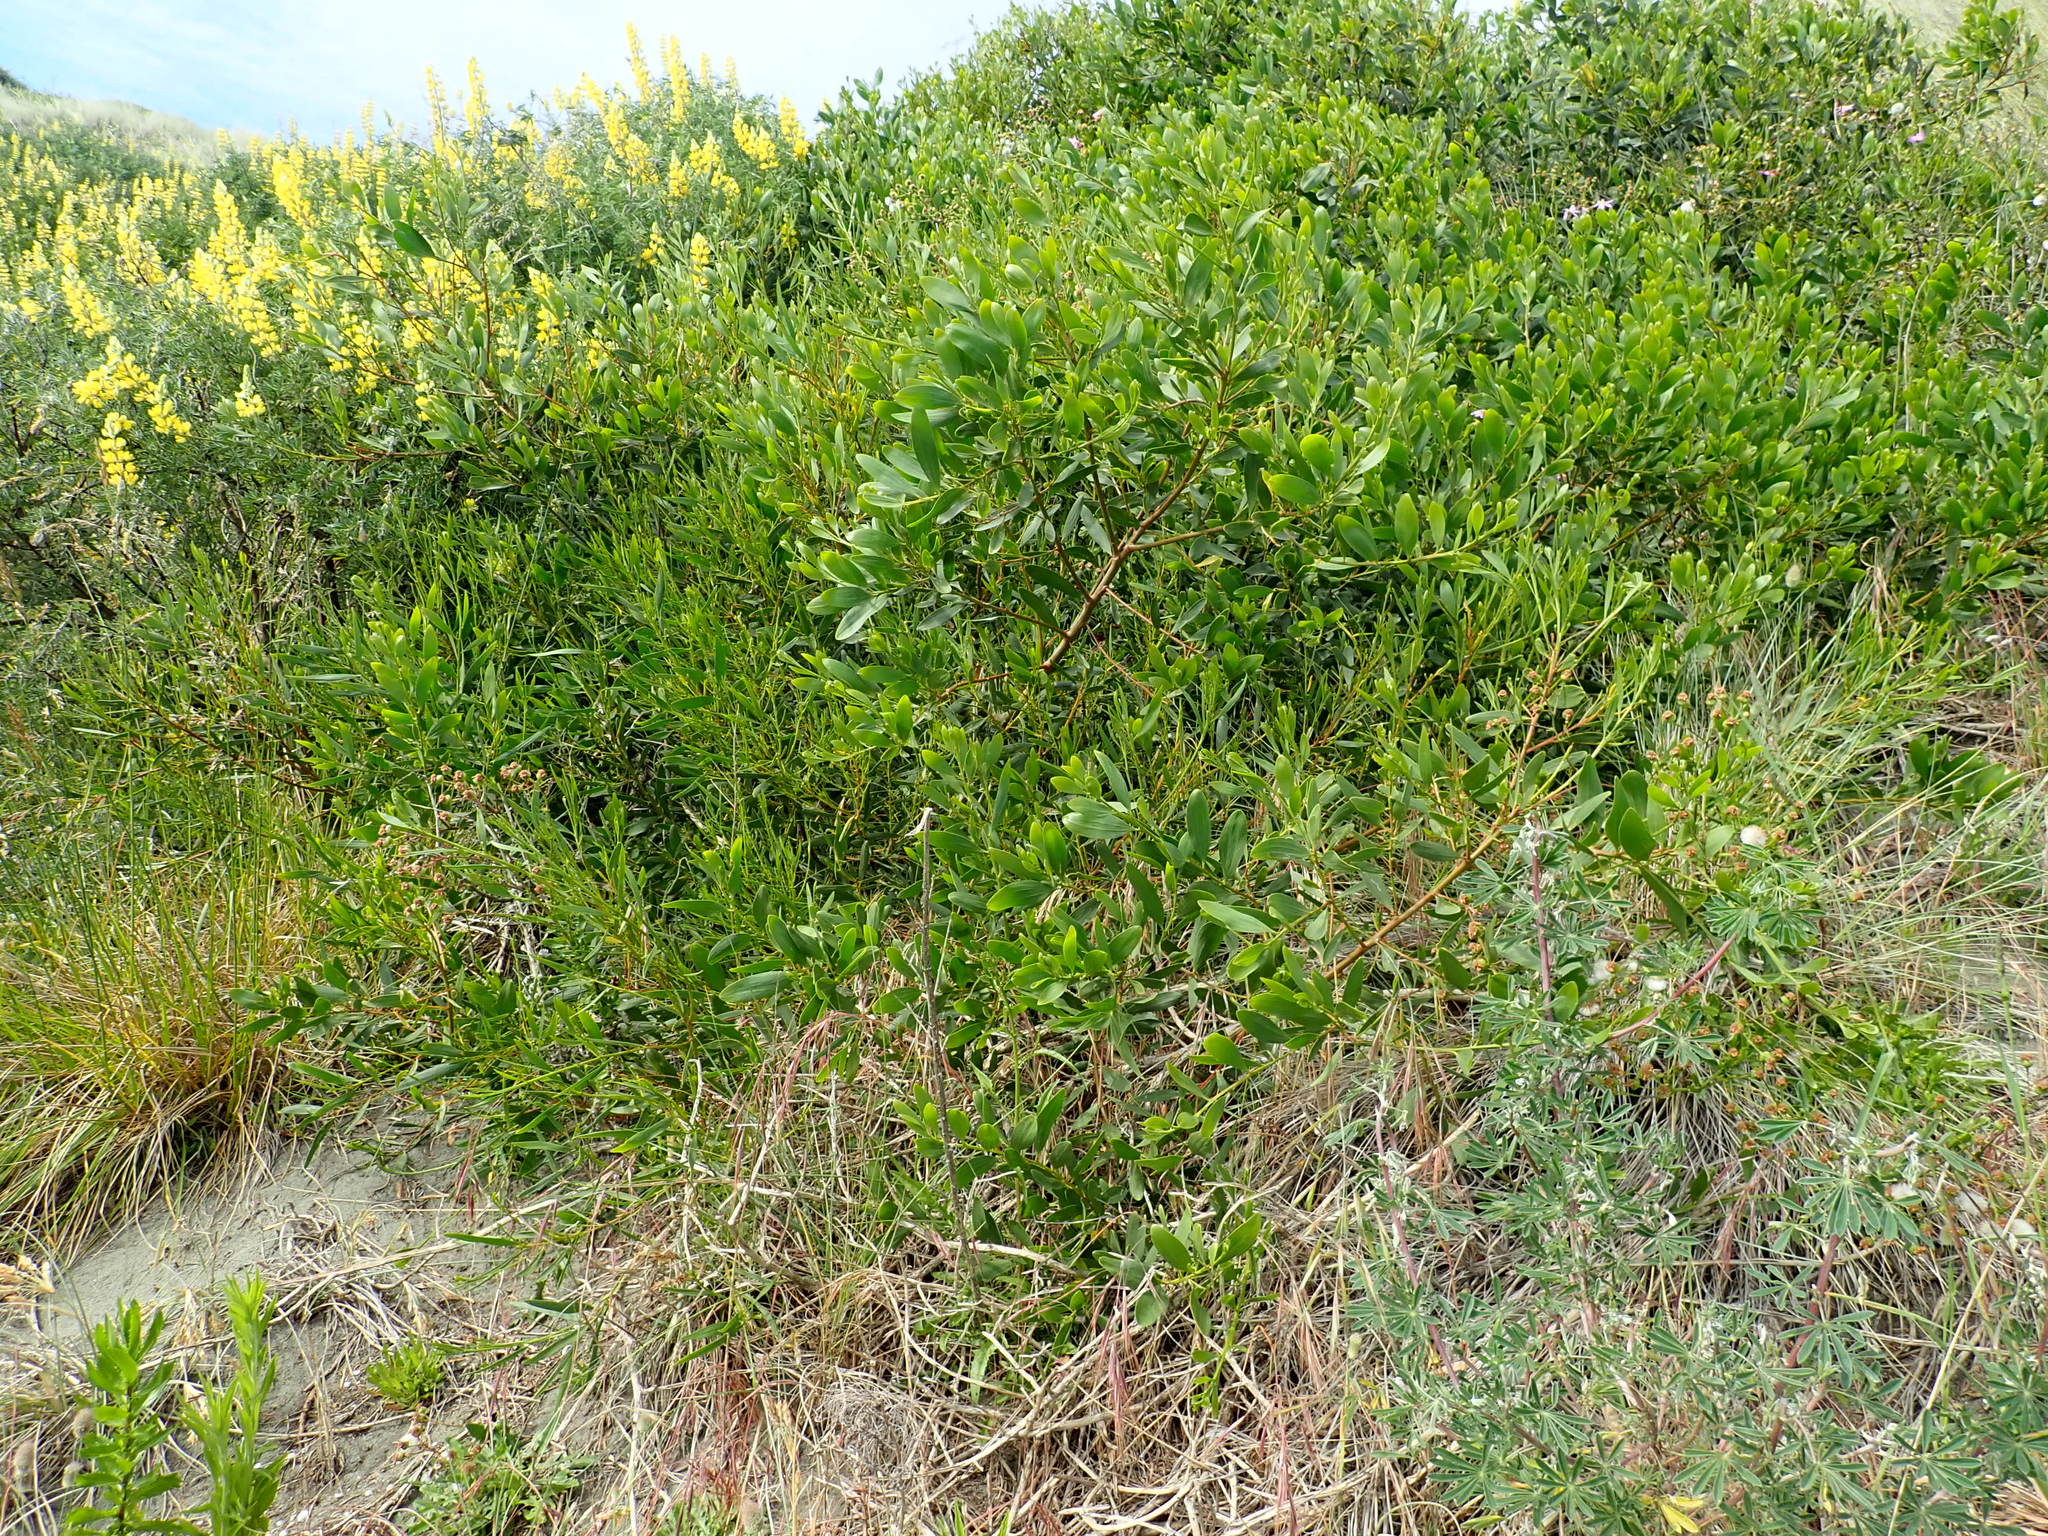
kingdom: Plantae
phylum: Tracheophyta
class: Magnoliopsida
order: Fabales
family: Fabaceae
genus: Acacia
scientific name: Acacia longifolia
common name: Sydney golden wattle
